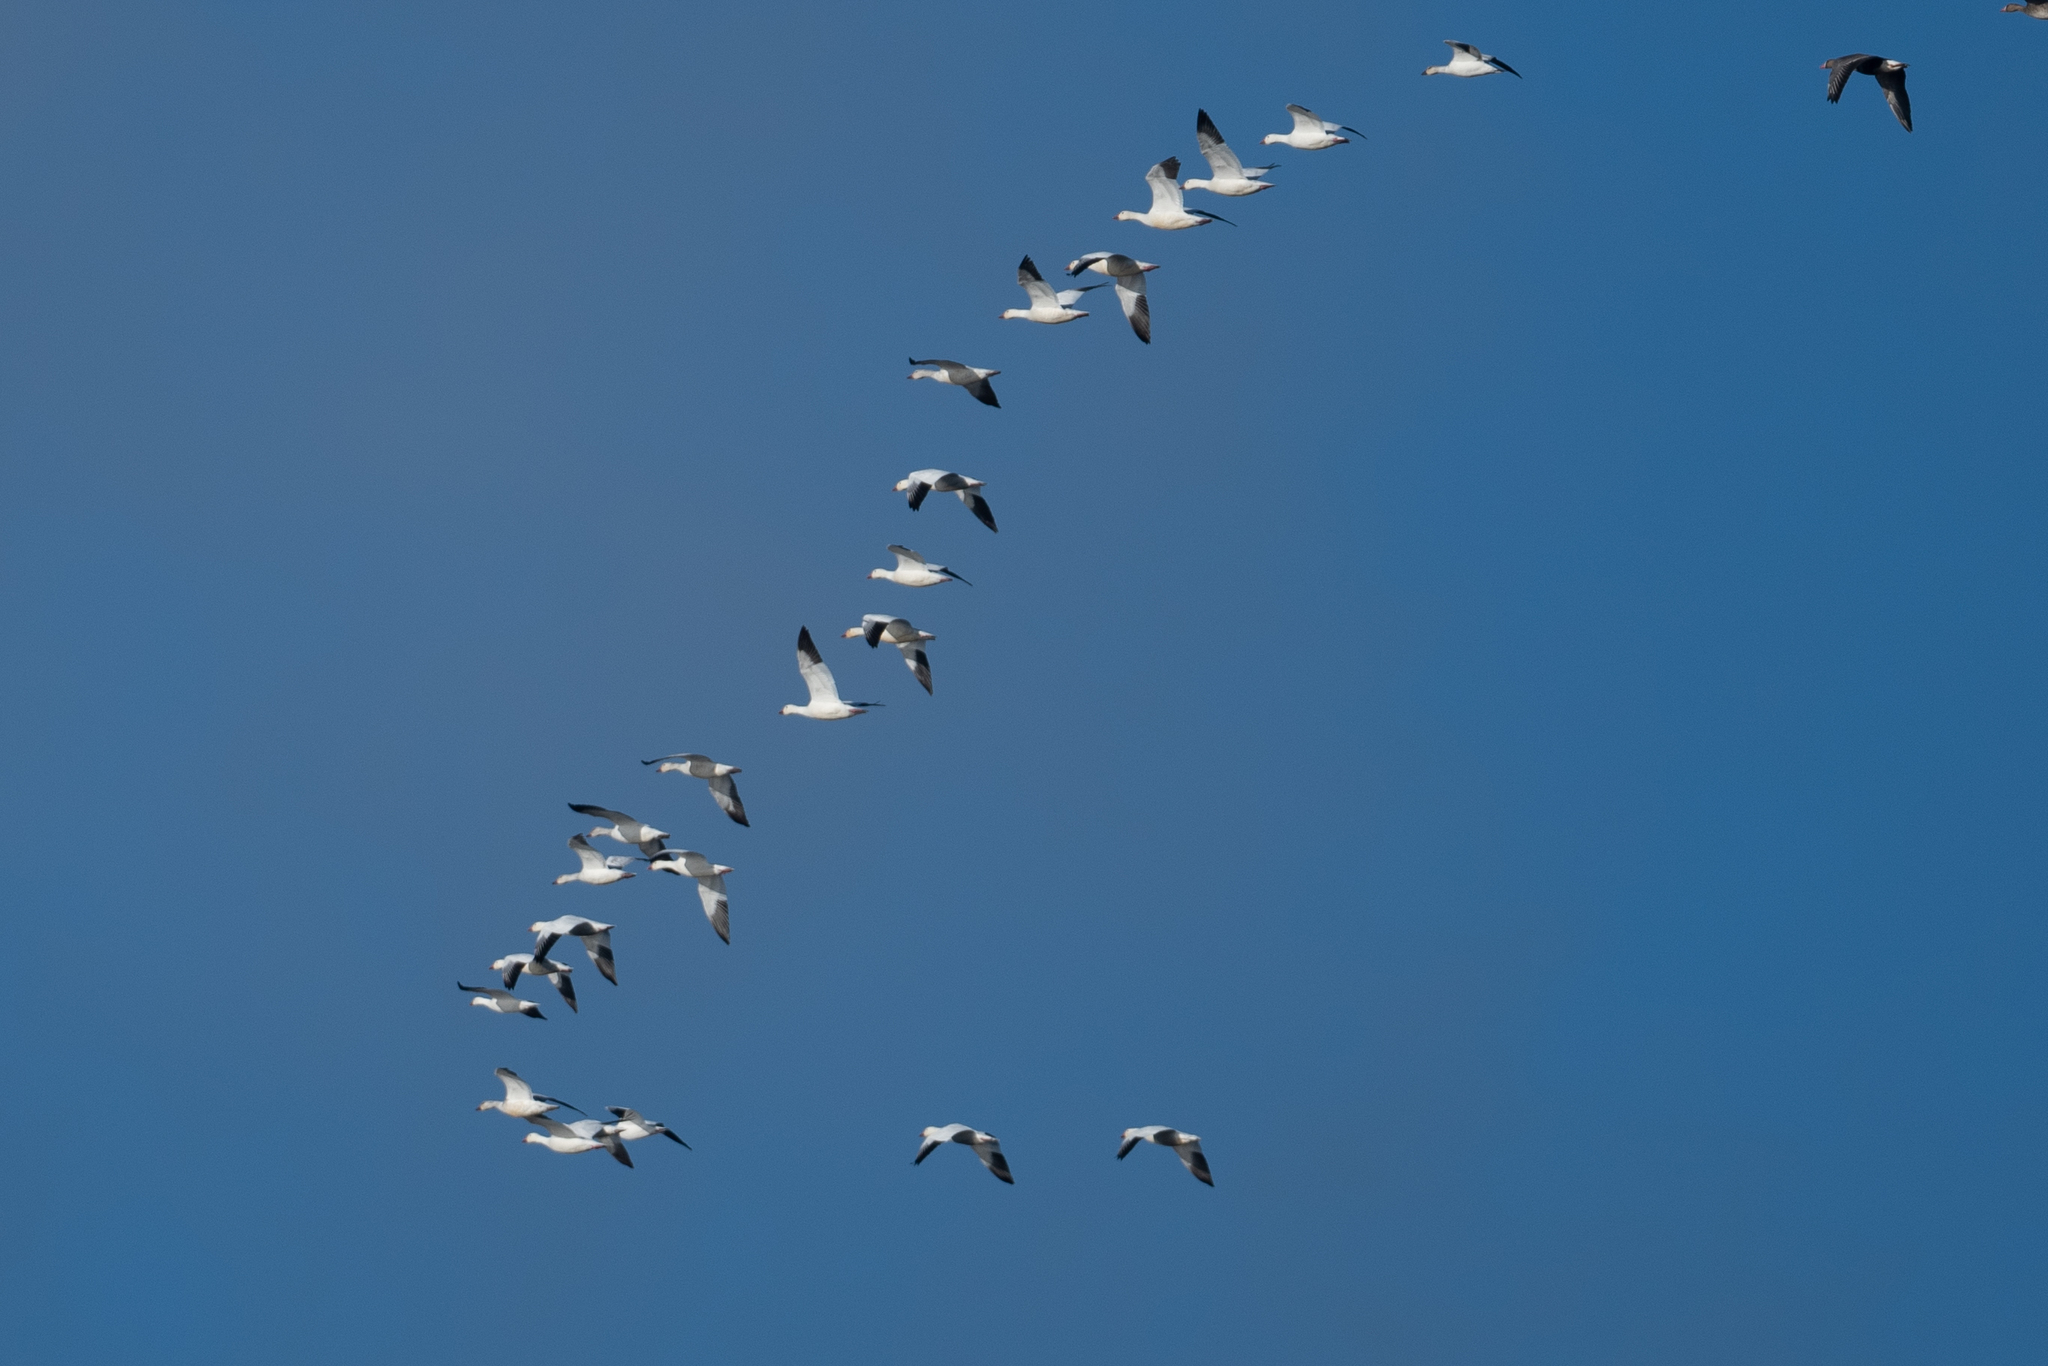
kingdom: Animalia
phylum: Chordata
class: Aves
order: Anseriformes
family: Anatidae
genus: Anser
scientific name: Anser caerulescens
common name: Snow goose
